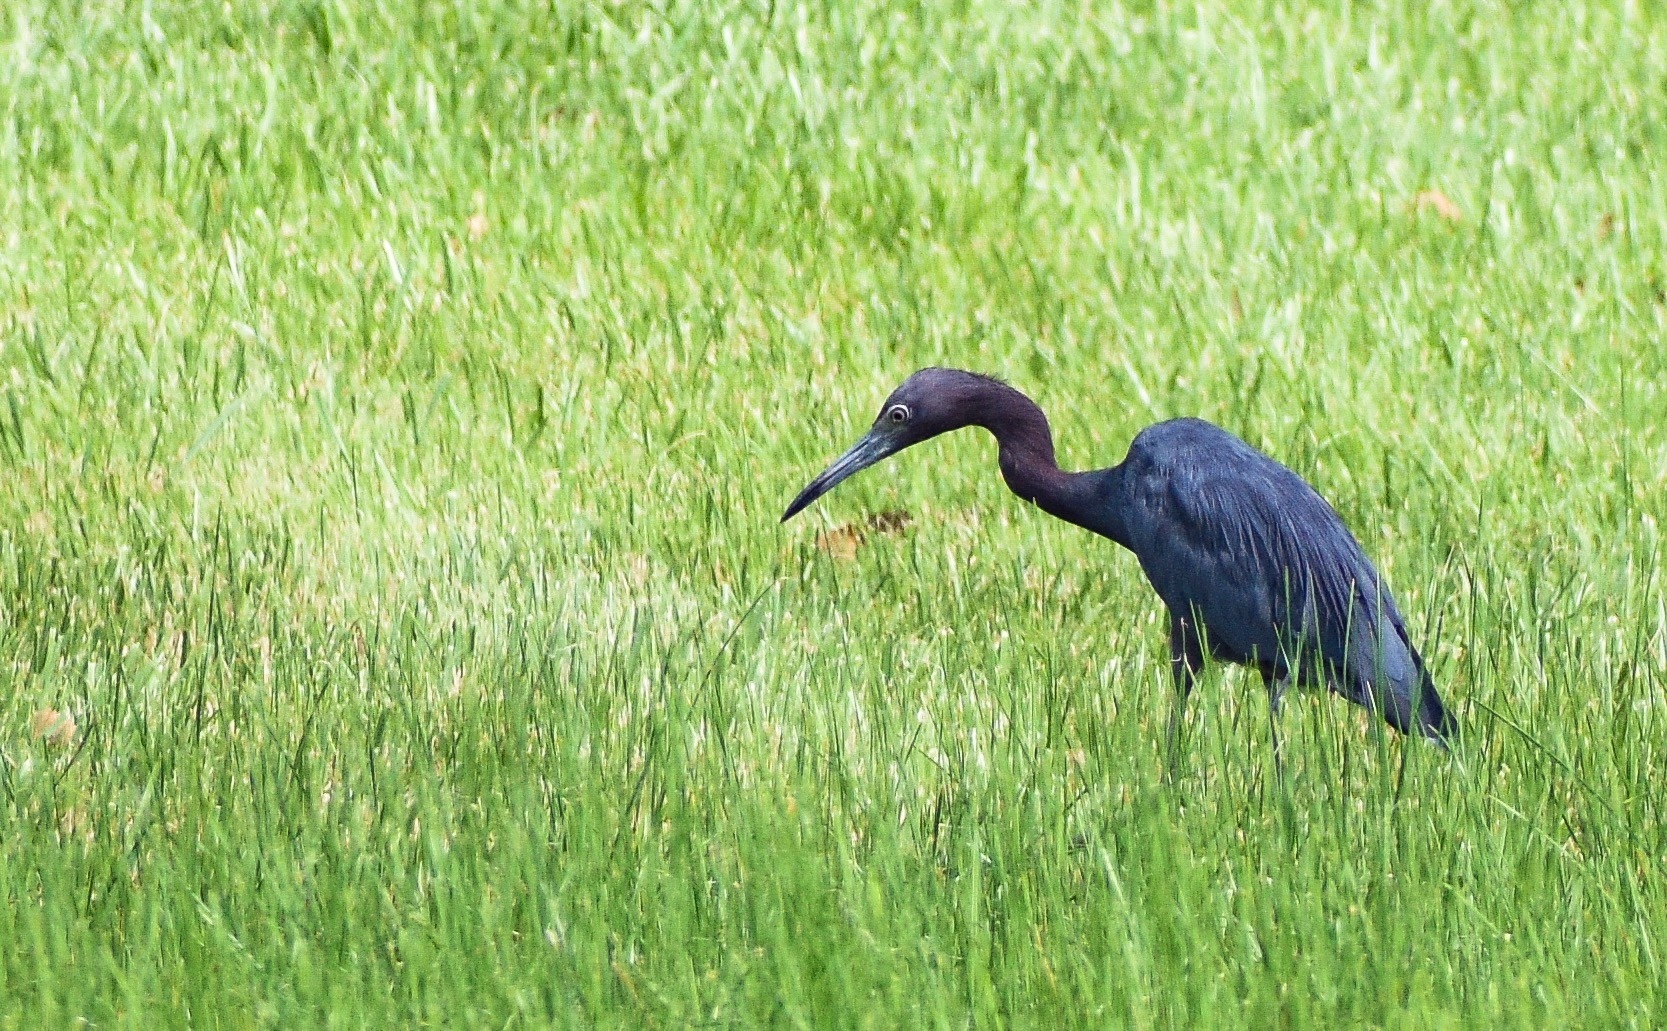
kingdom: Animalia
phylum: Chordata
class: Aves
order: Pelecaniformes
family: Ardeidae
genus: Egretta
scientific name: Egretta caerulea
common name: Little blue heron
